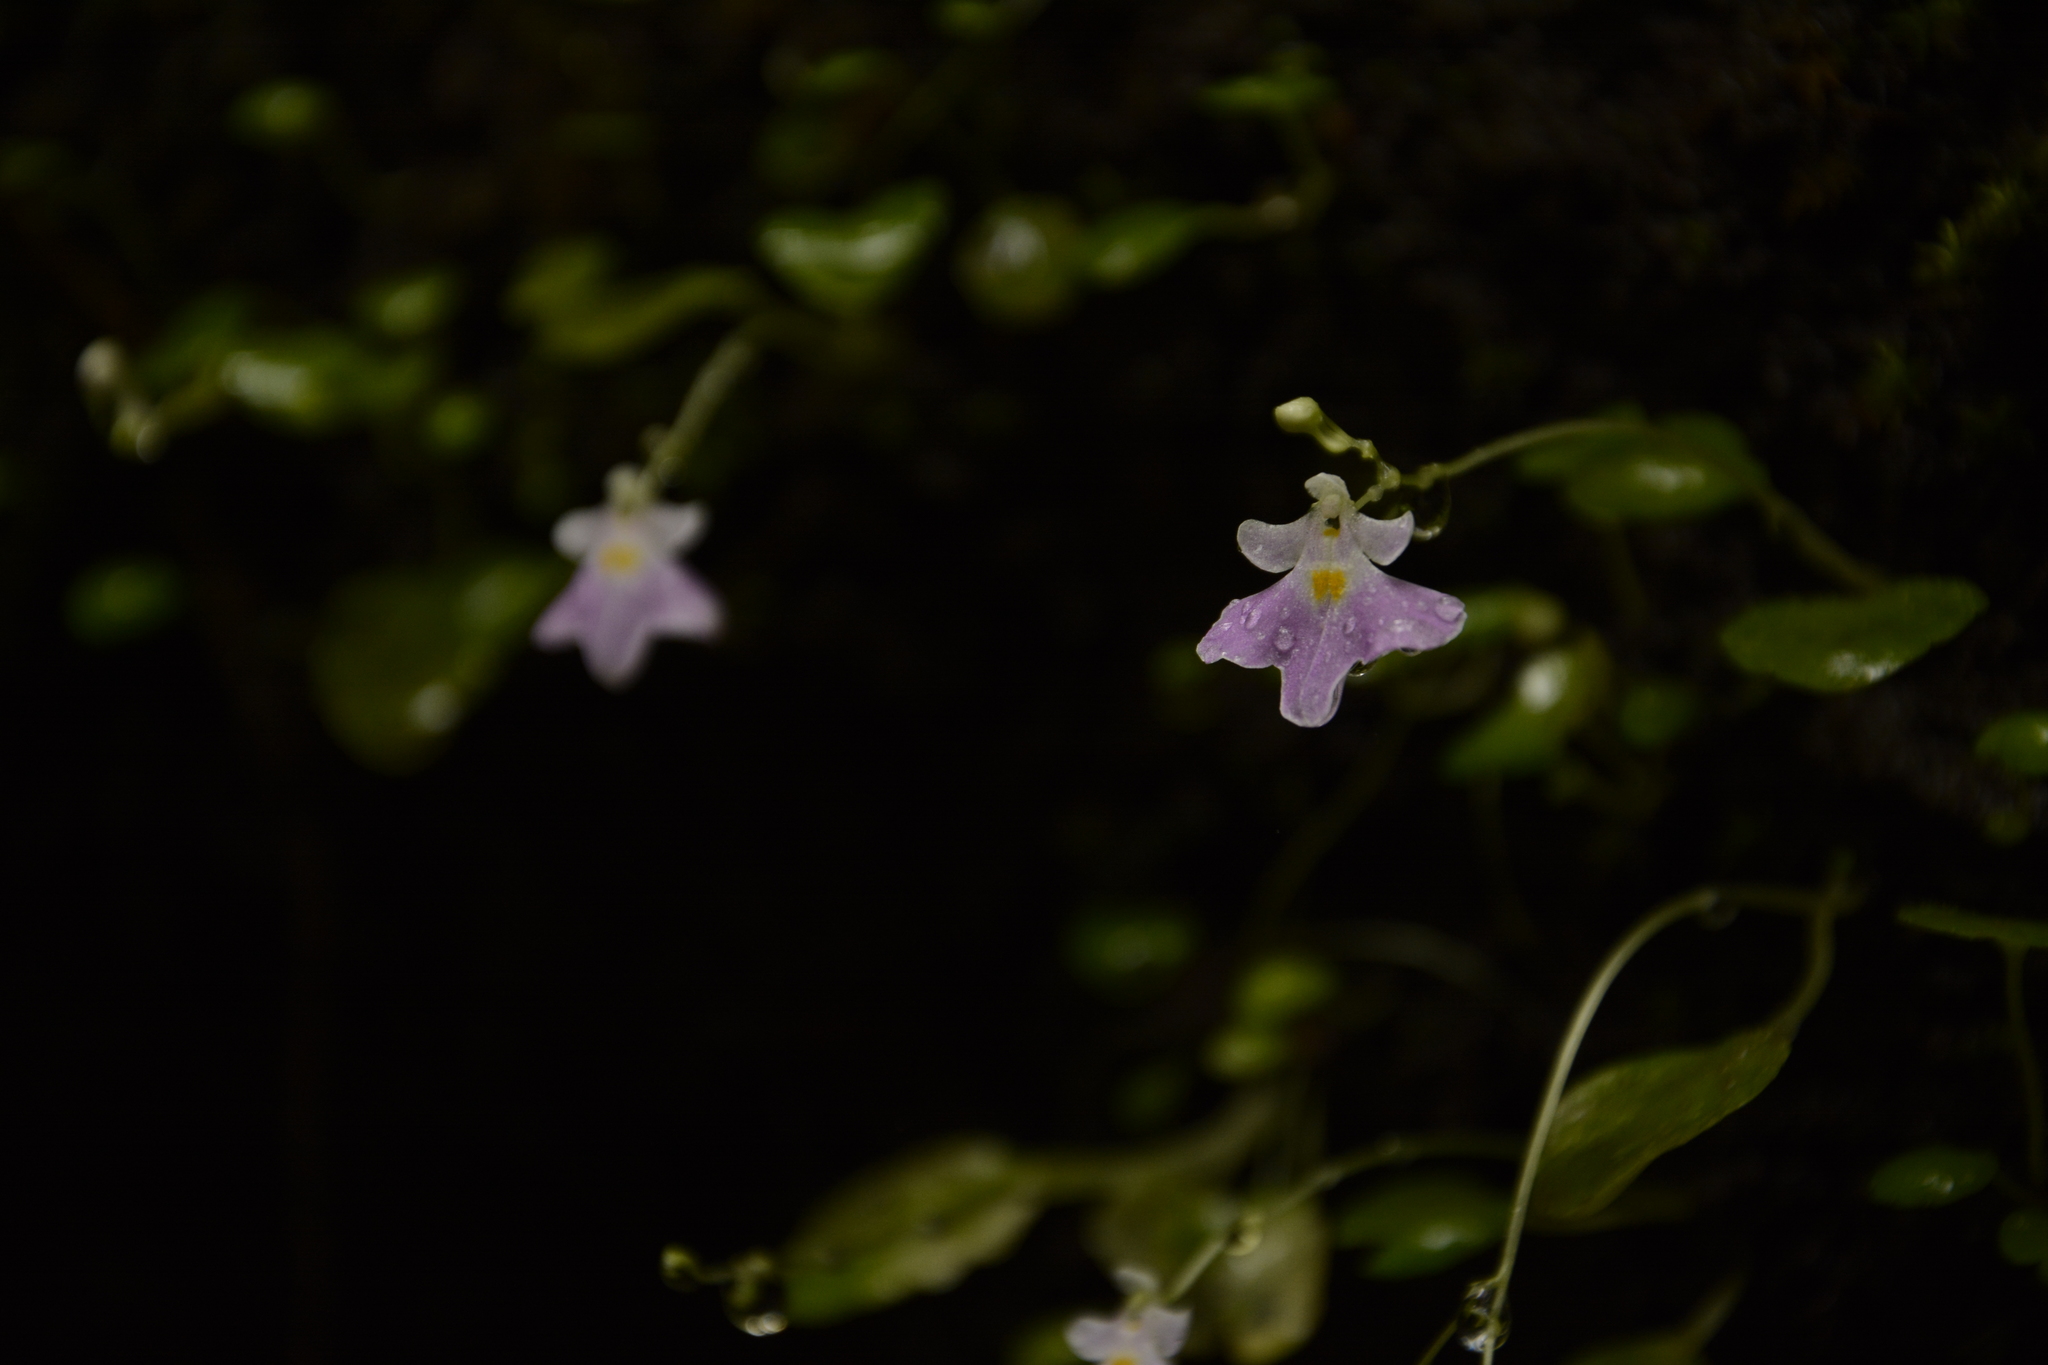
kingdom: Plantae
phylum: Tracheophyta
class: Magnoliopsida
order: Ericales
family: Balsaminaceae
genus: Impatiens
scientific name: Impatiens agumbeana
